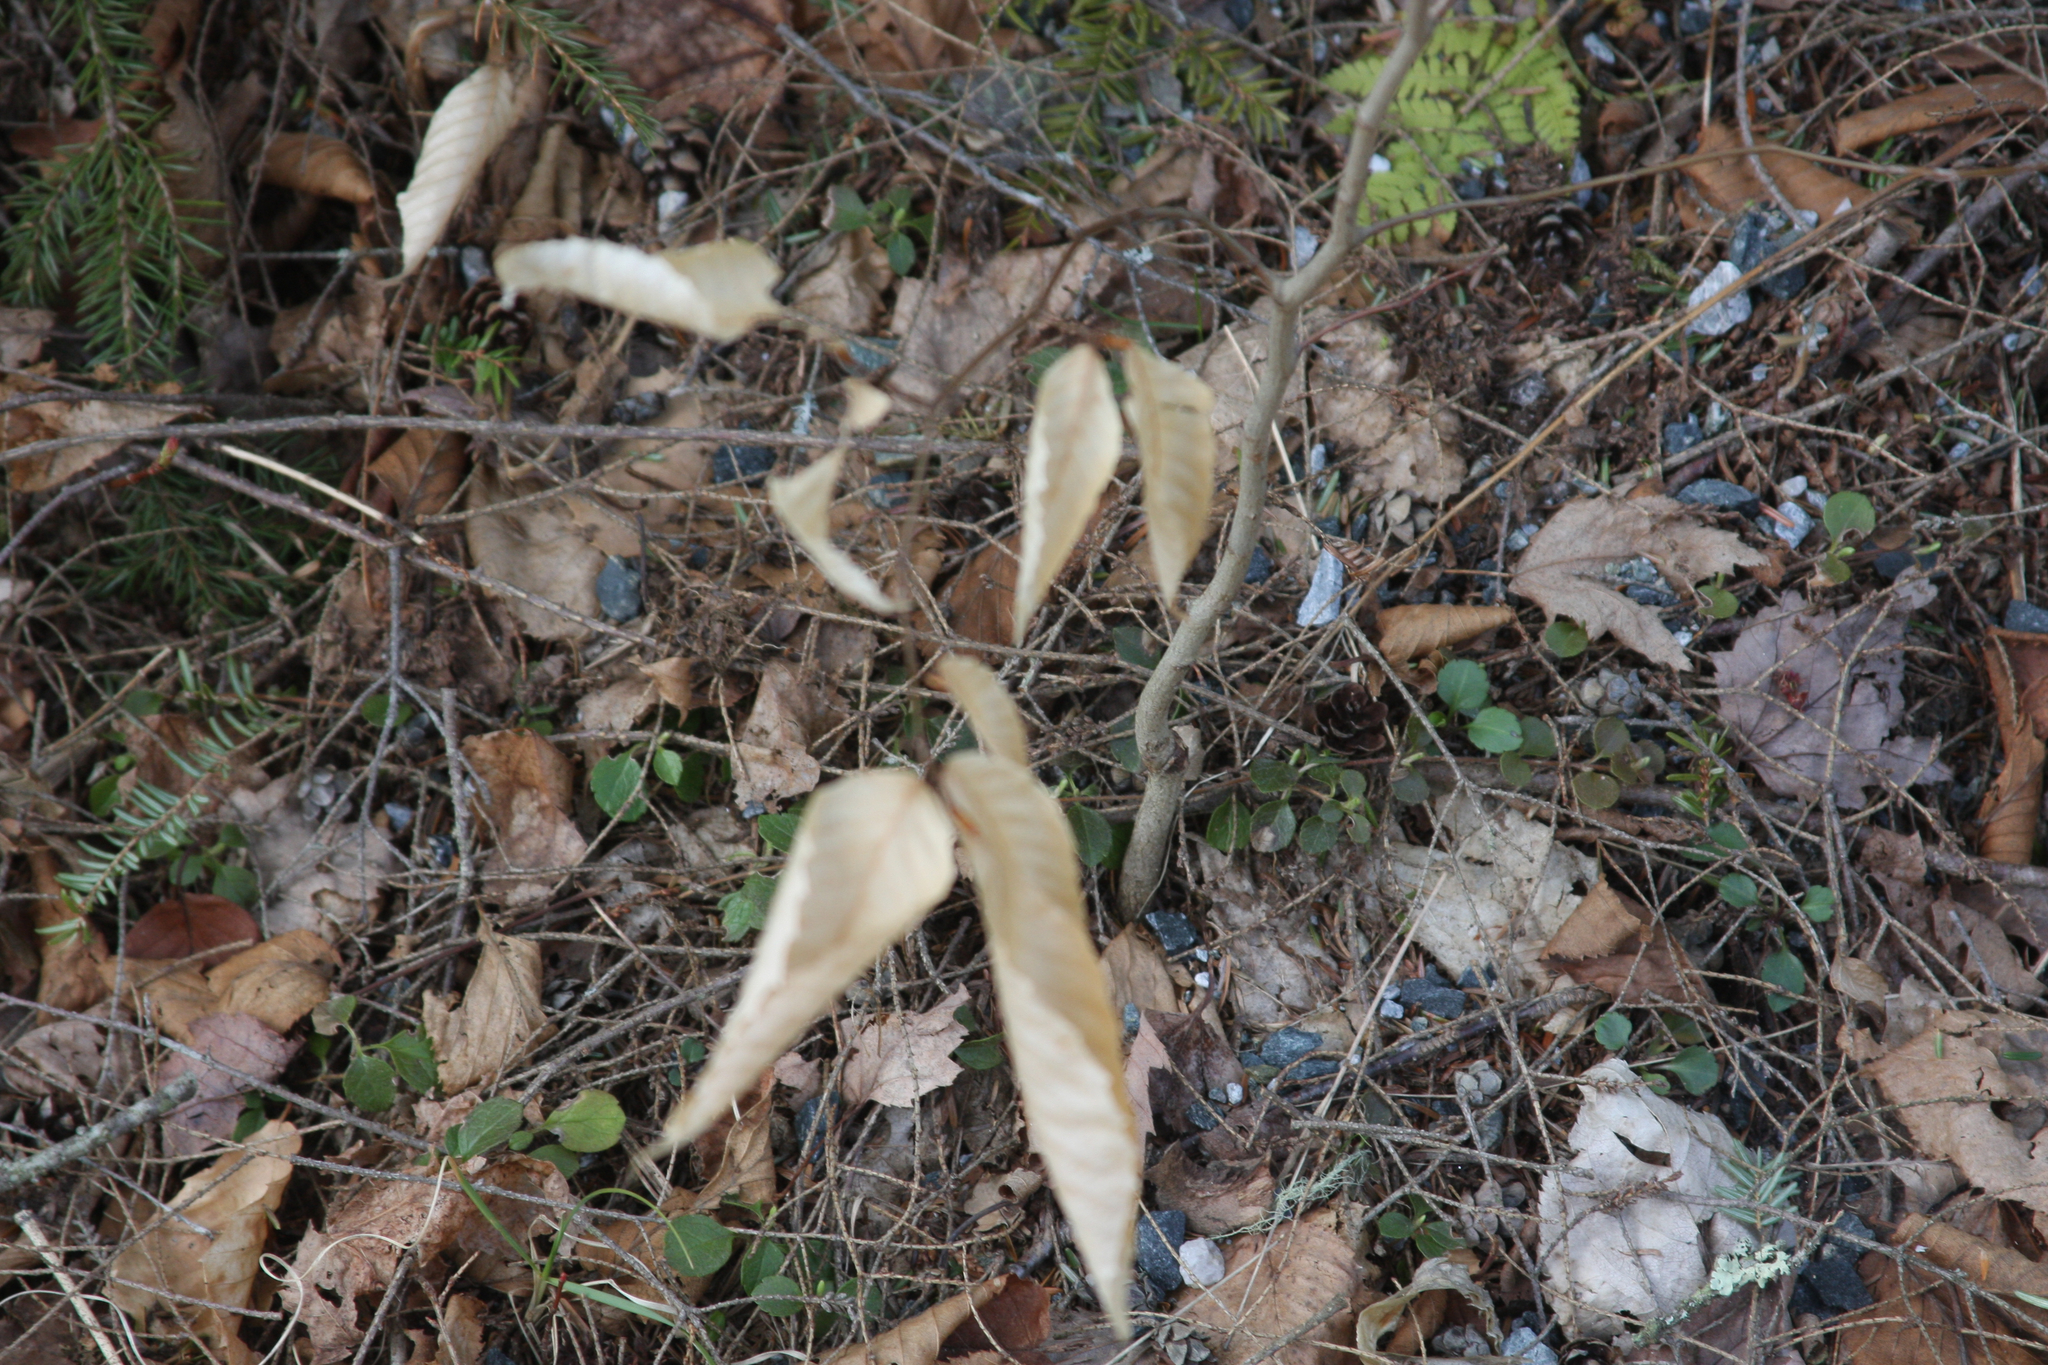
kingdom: Plantae
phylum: Tracheophyta
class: Magnoliopsida
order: Fagales
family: Fagaceae
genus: Fagus
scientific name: Fagus grandifolia
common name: American beech
